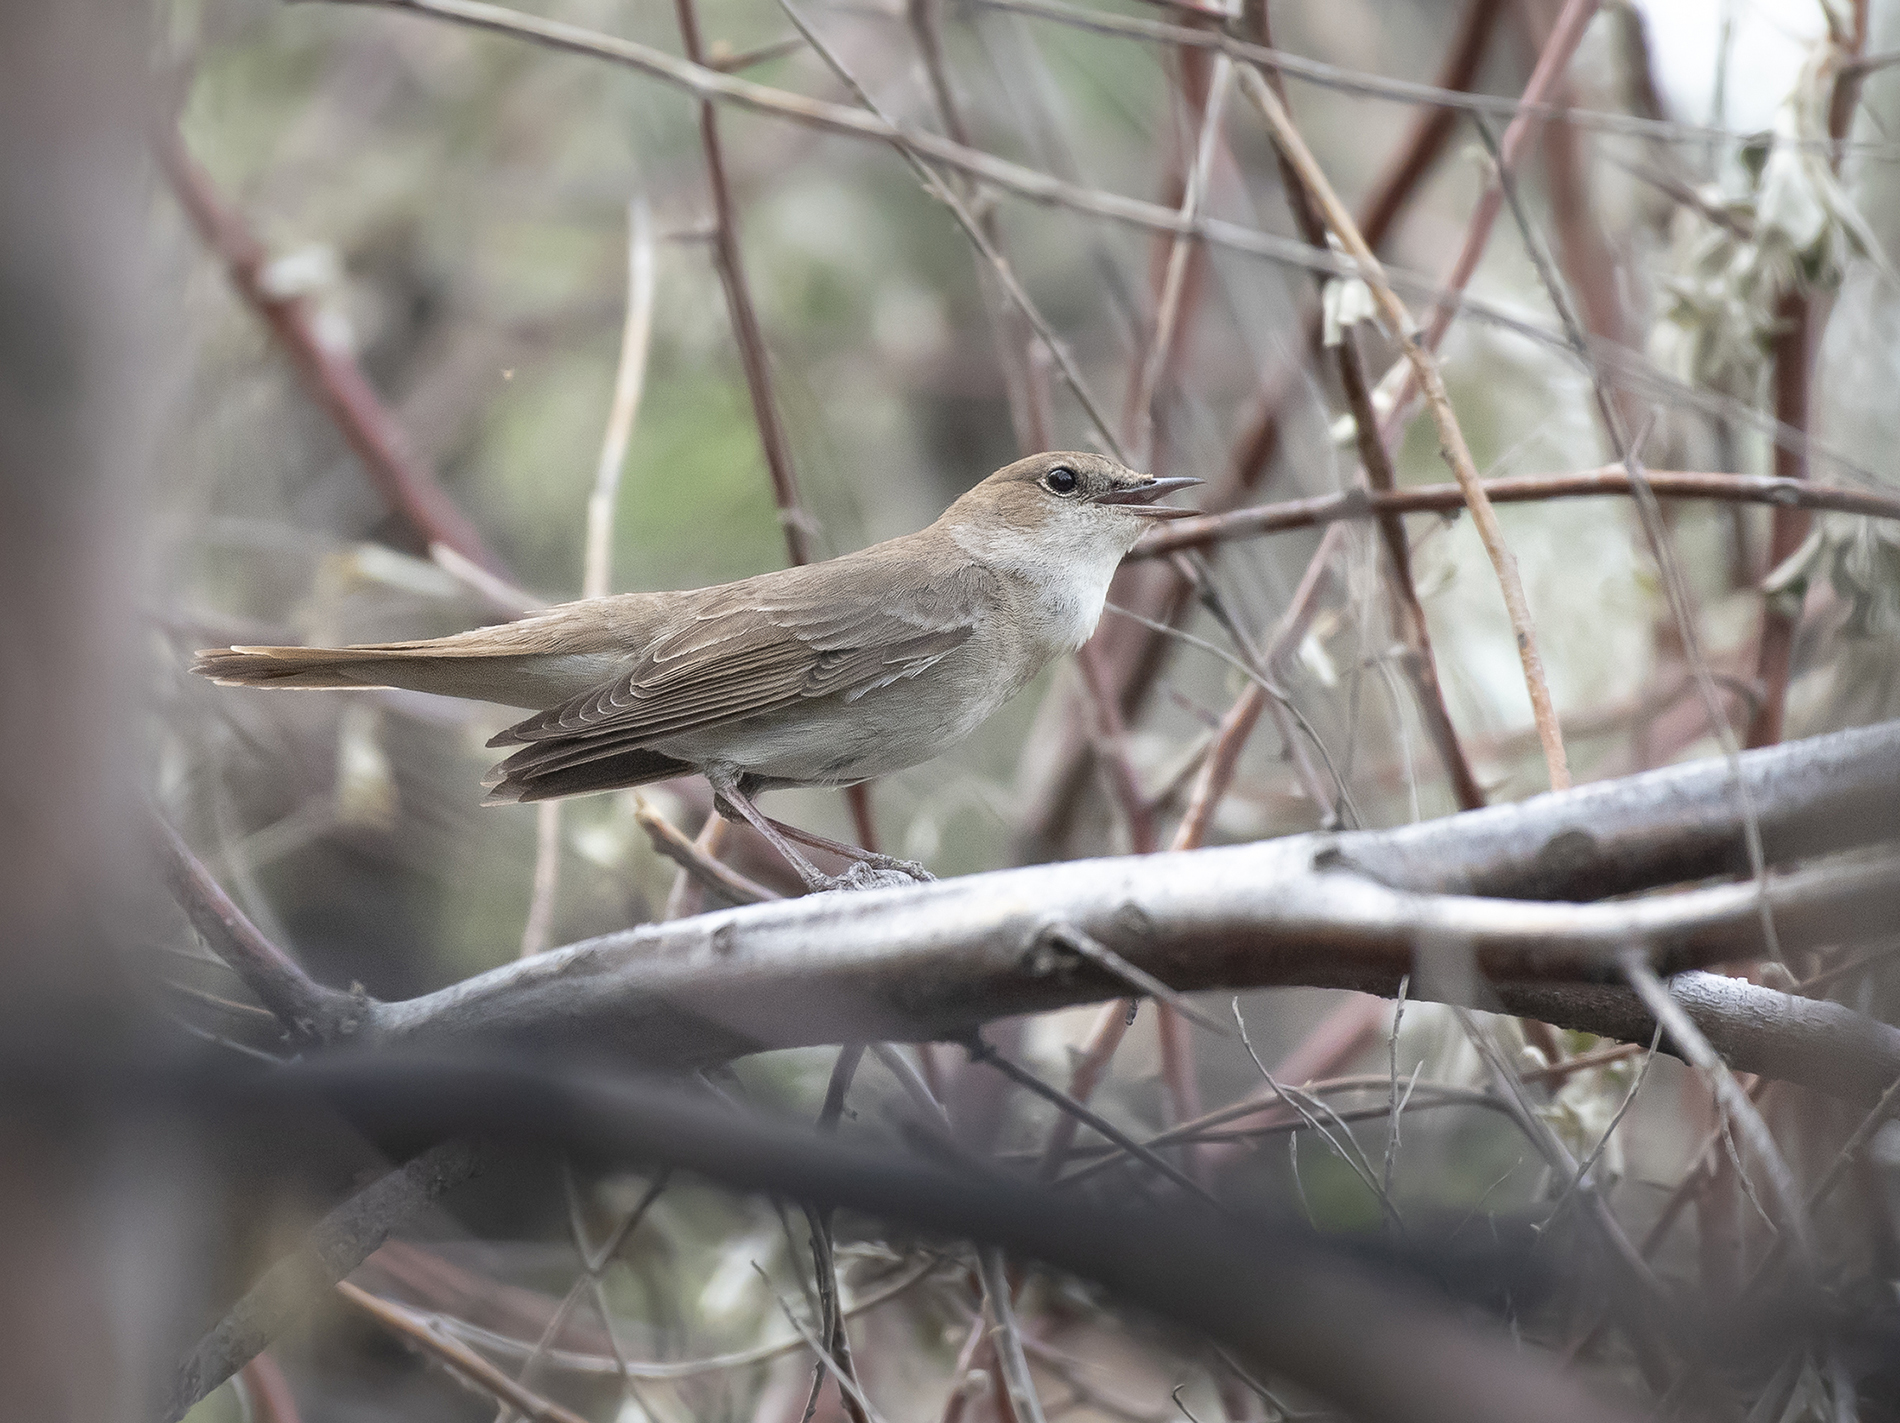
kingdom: Animalia
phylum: Chordata
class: Aves
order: Passeriformes
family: Muscicapidae
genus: Luscinia
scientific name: Luscinia megarhynchos
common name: Common nightingale
